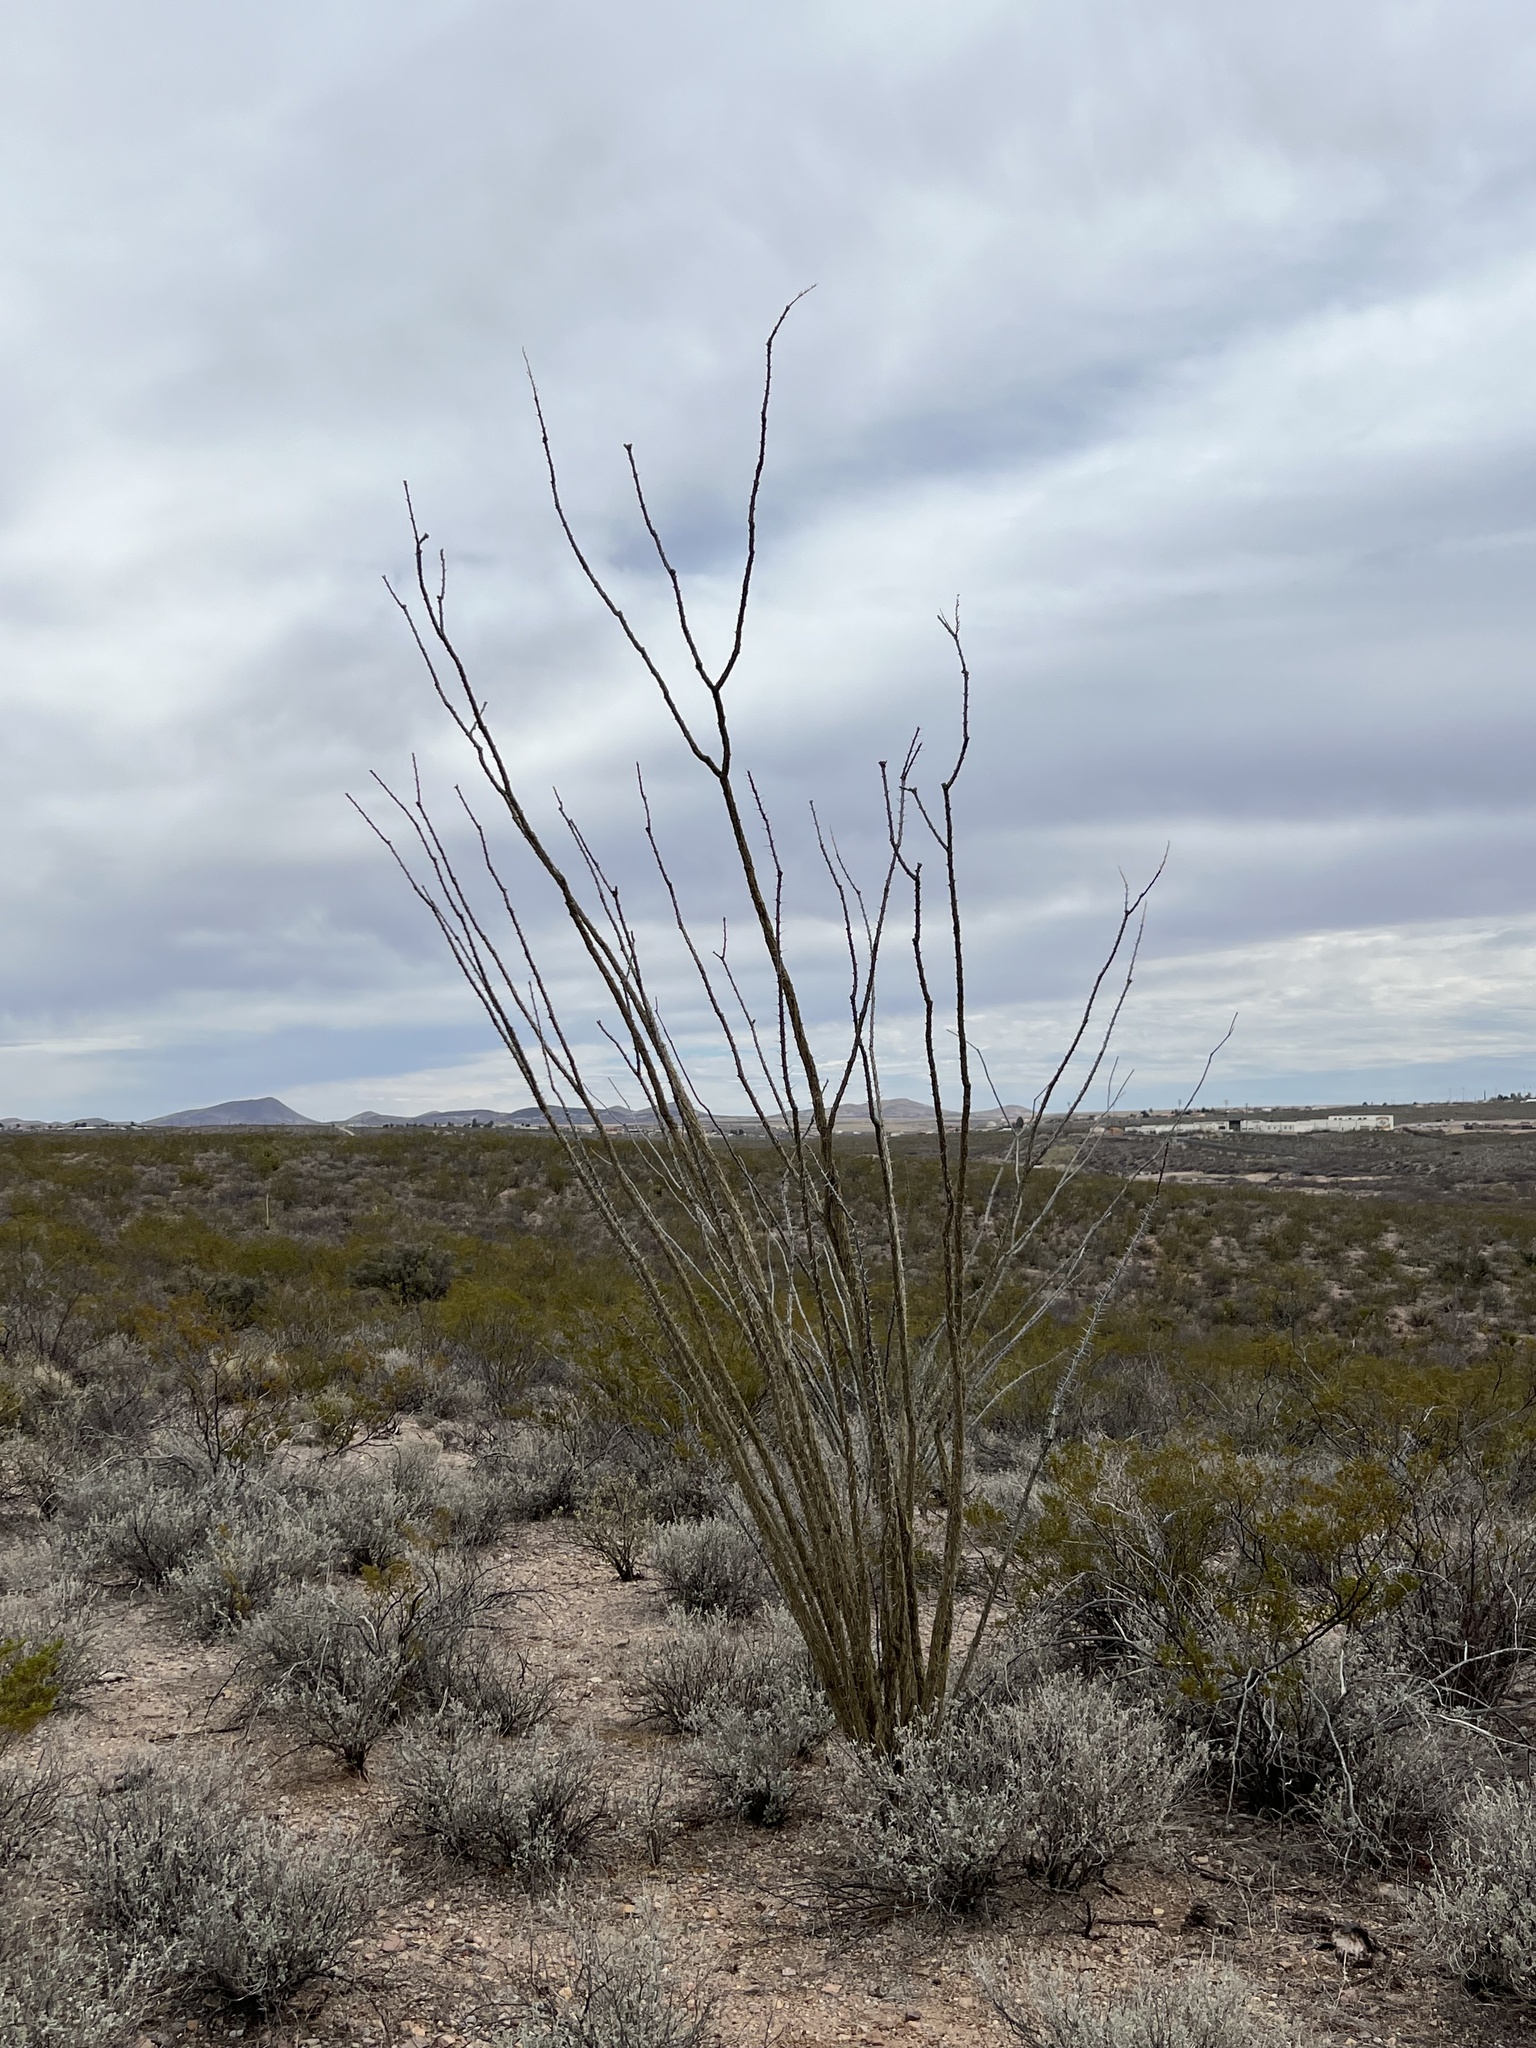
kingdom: Plantae
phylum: Tracheophyta
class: Magnoliopsida
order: Ericales
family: Fouquieriaceae
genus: Fouquieria
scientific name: Fouquieria splendens
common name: Vine-cactus
